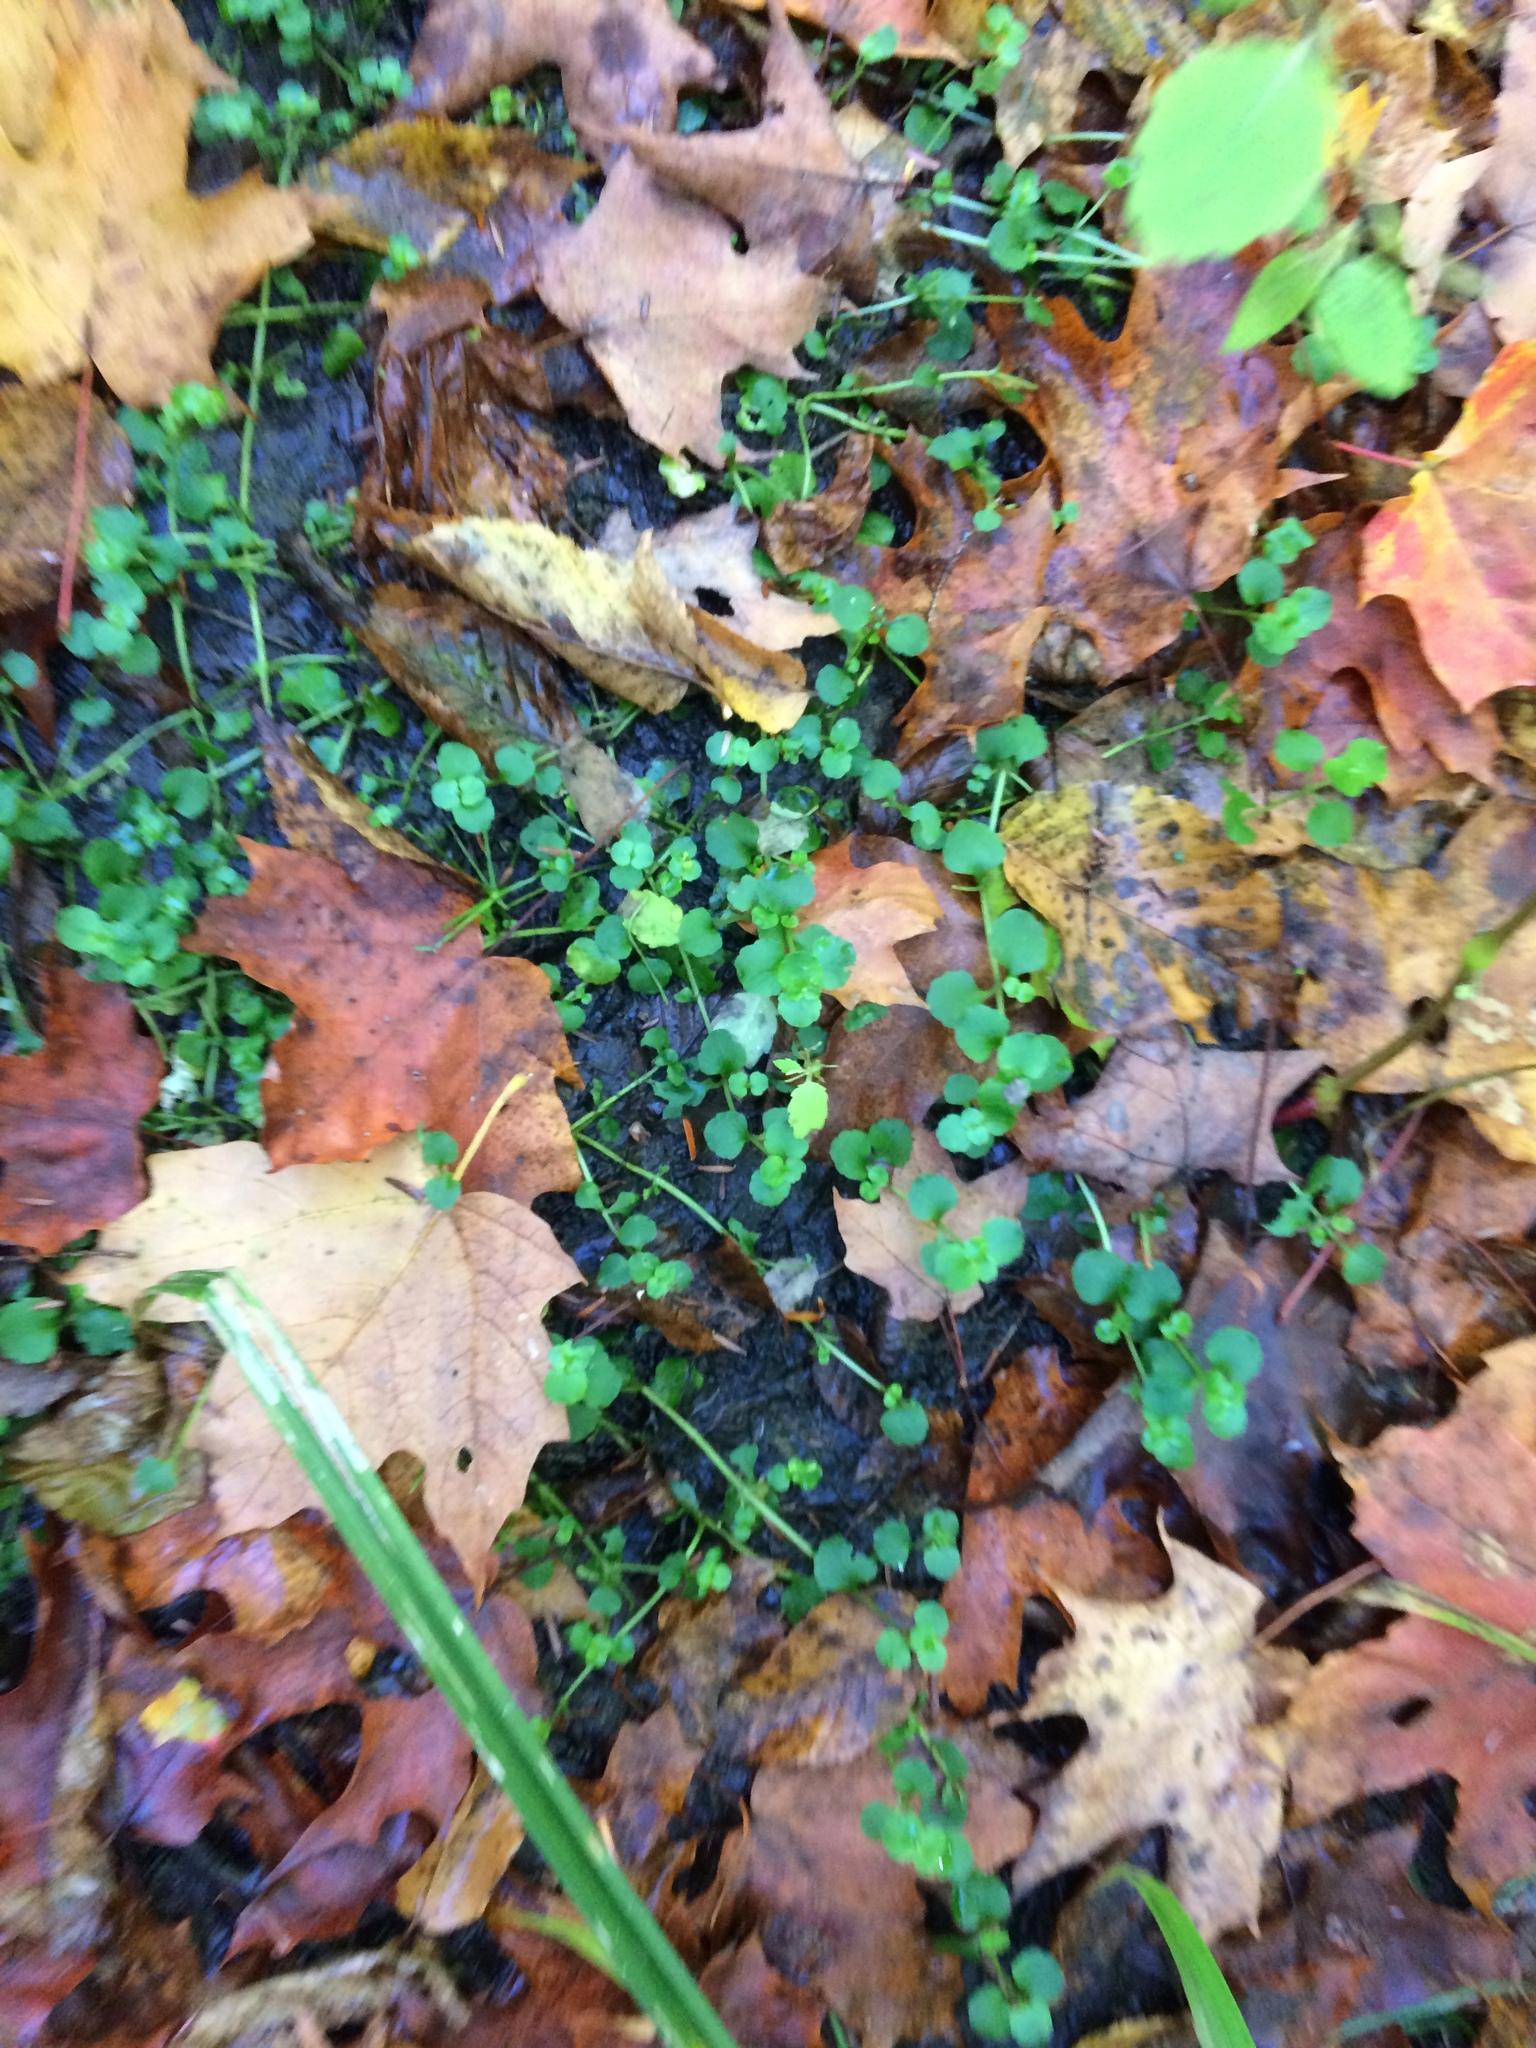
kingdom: Plantae
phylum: Tracheophyta
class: Magnoliopsida
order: Saxifragales
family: Saxifragaceae
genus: Chrysosplenium
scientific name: Chrysosplenium americanum
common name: American golden-saxifrage
